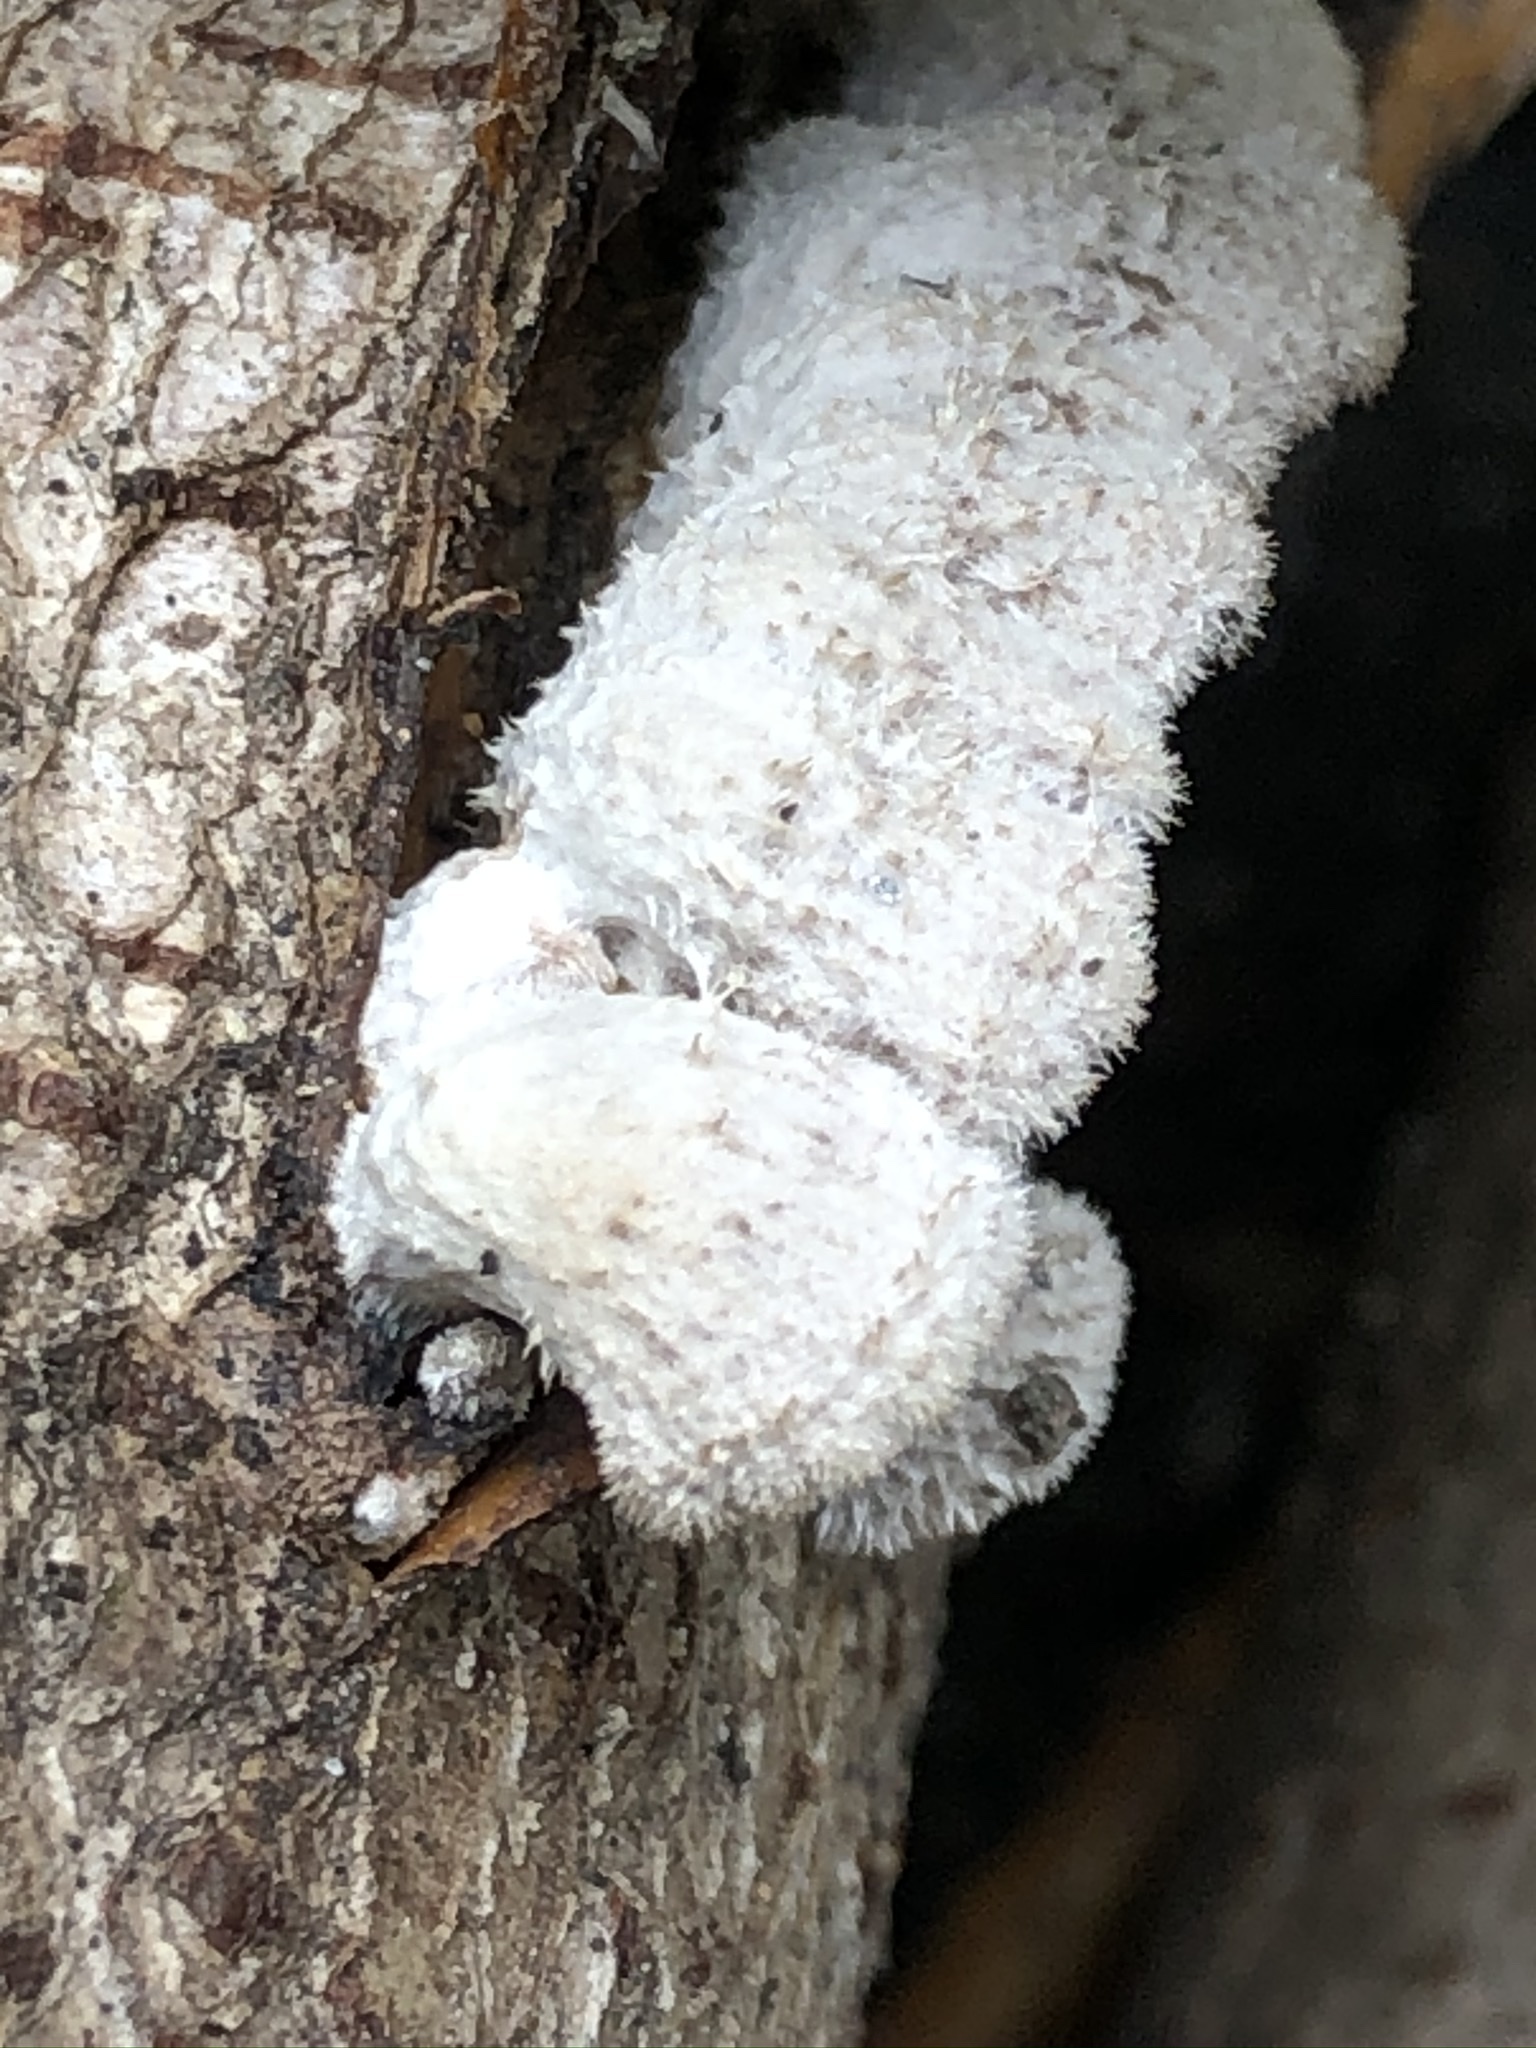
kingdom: Fungi
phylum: Basidiomycota
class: Agaricomycetes
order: Agaricales
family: Schizophyllaceae
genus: Schizophyllum
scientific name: Schizophyllum commune
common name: Common porecrust
